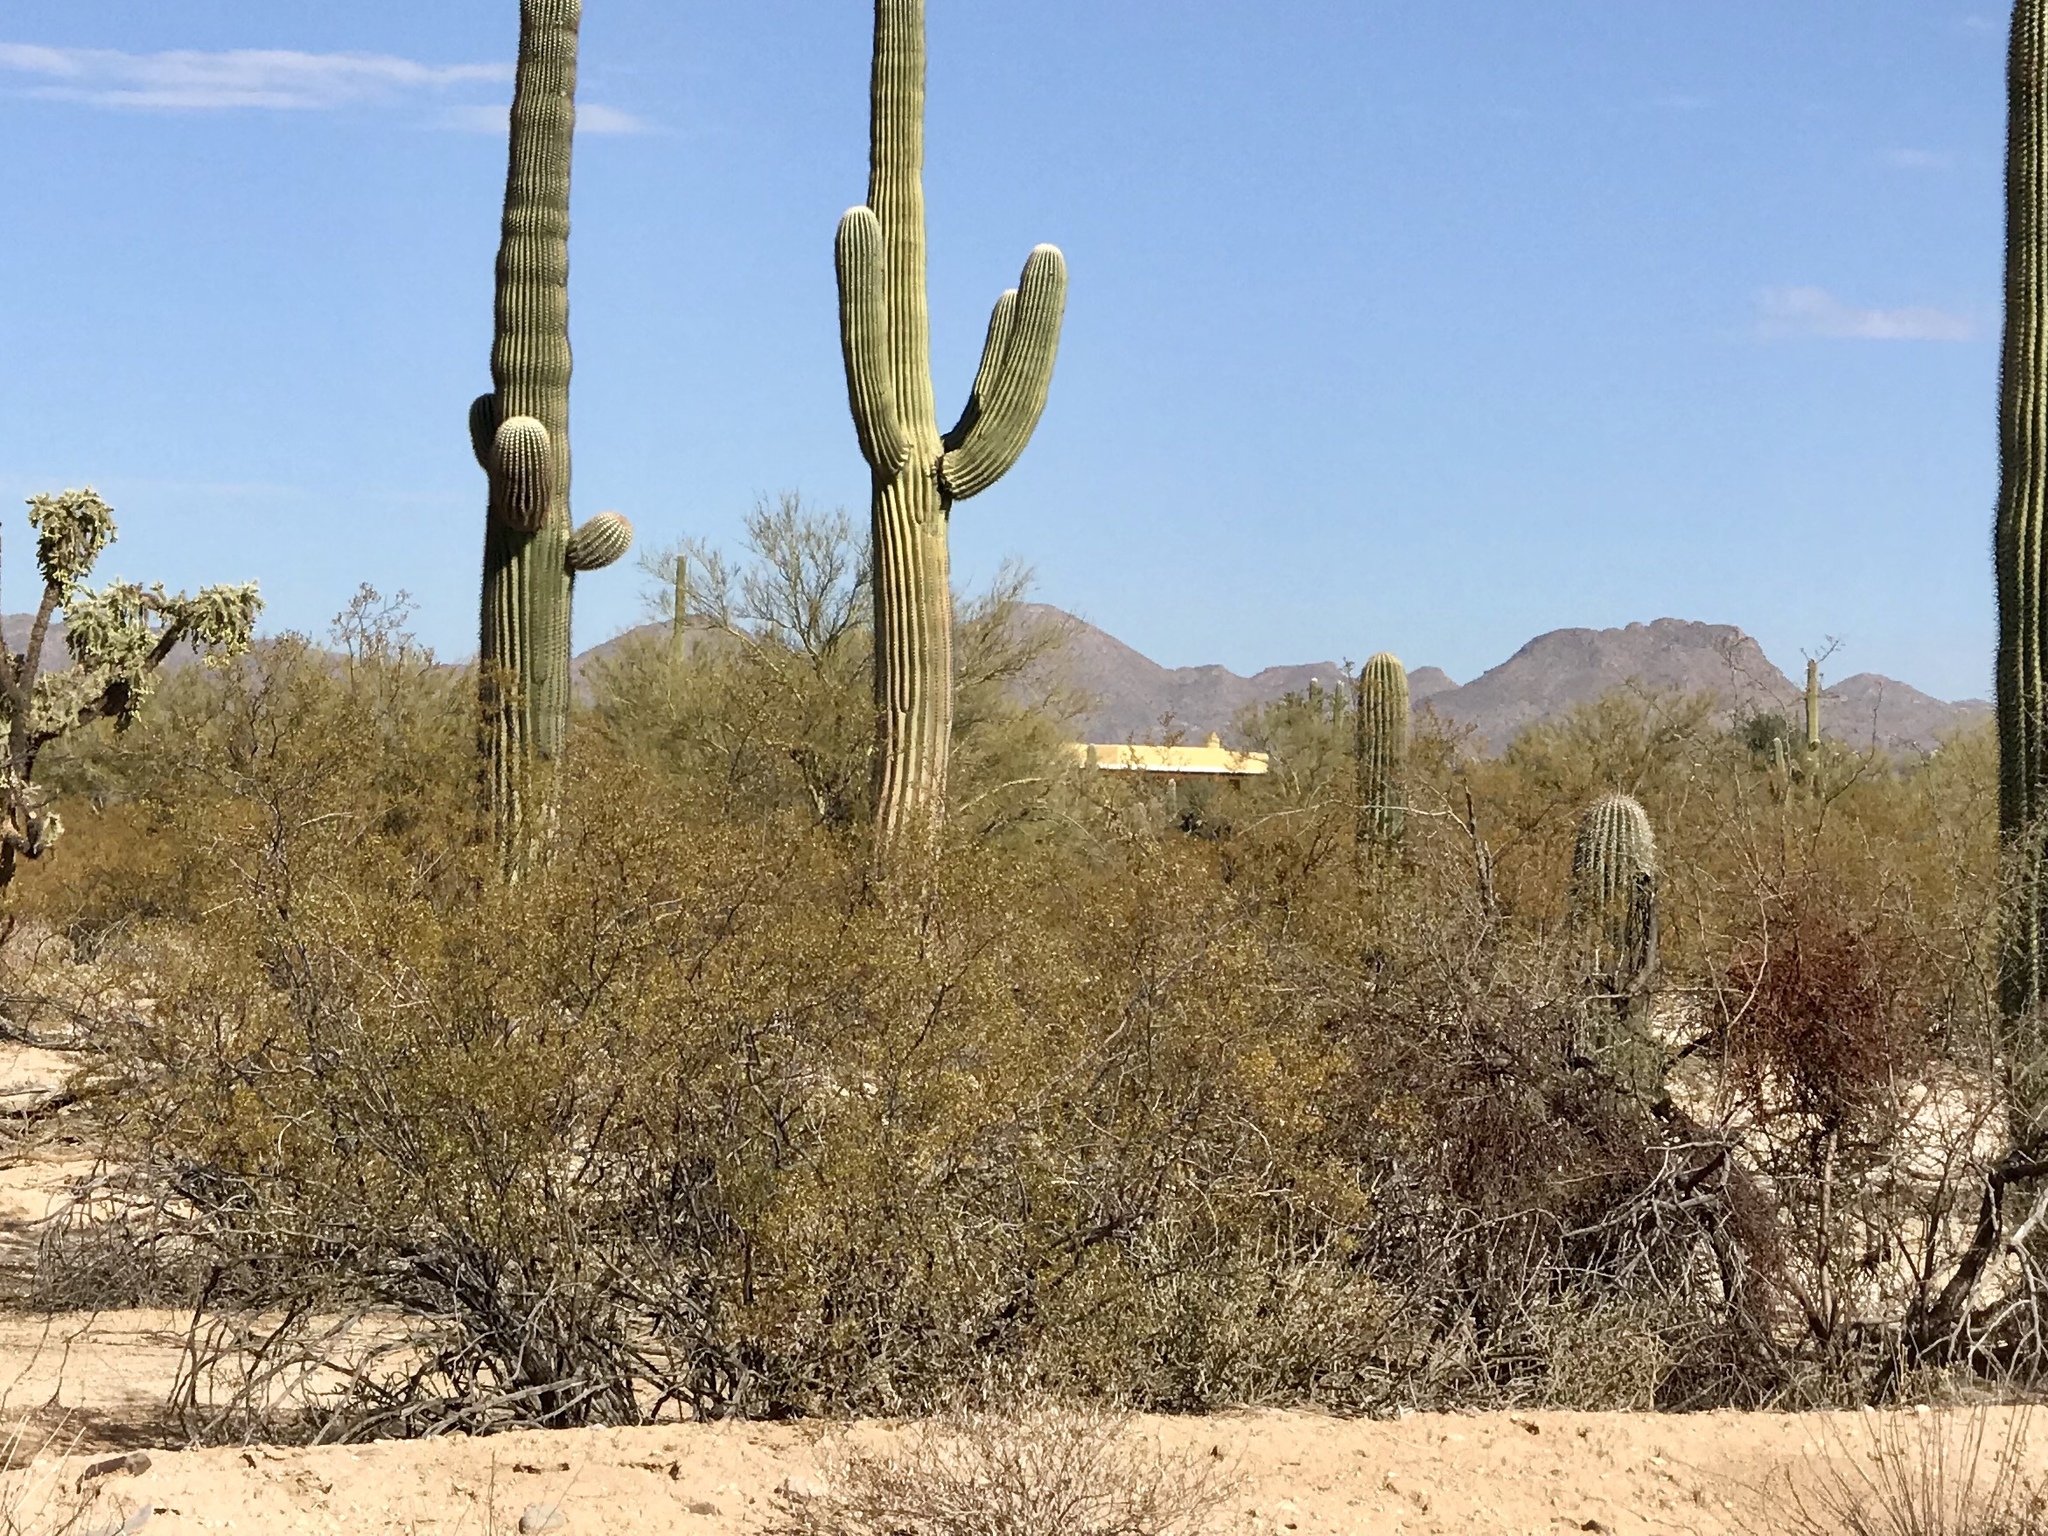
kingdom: Plantae
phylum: Tracheophyta
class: Magnoliopsida
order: Zygophyllales
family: Zygophyllaceae
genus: Larrea
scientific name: Larrea tridentata
